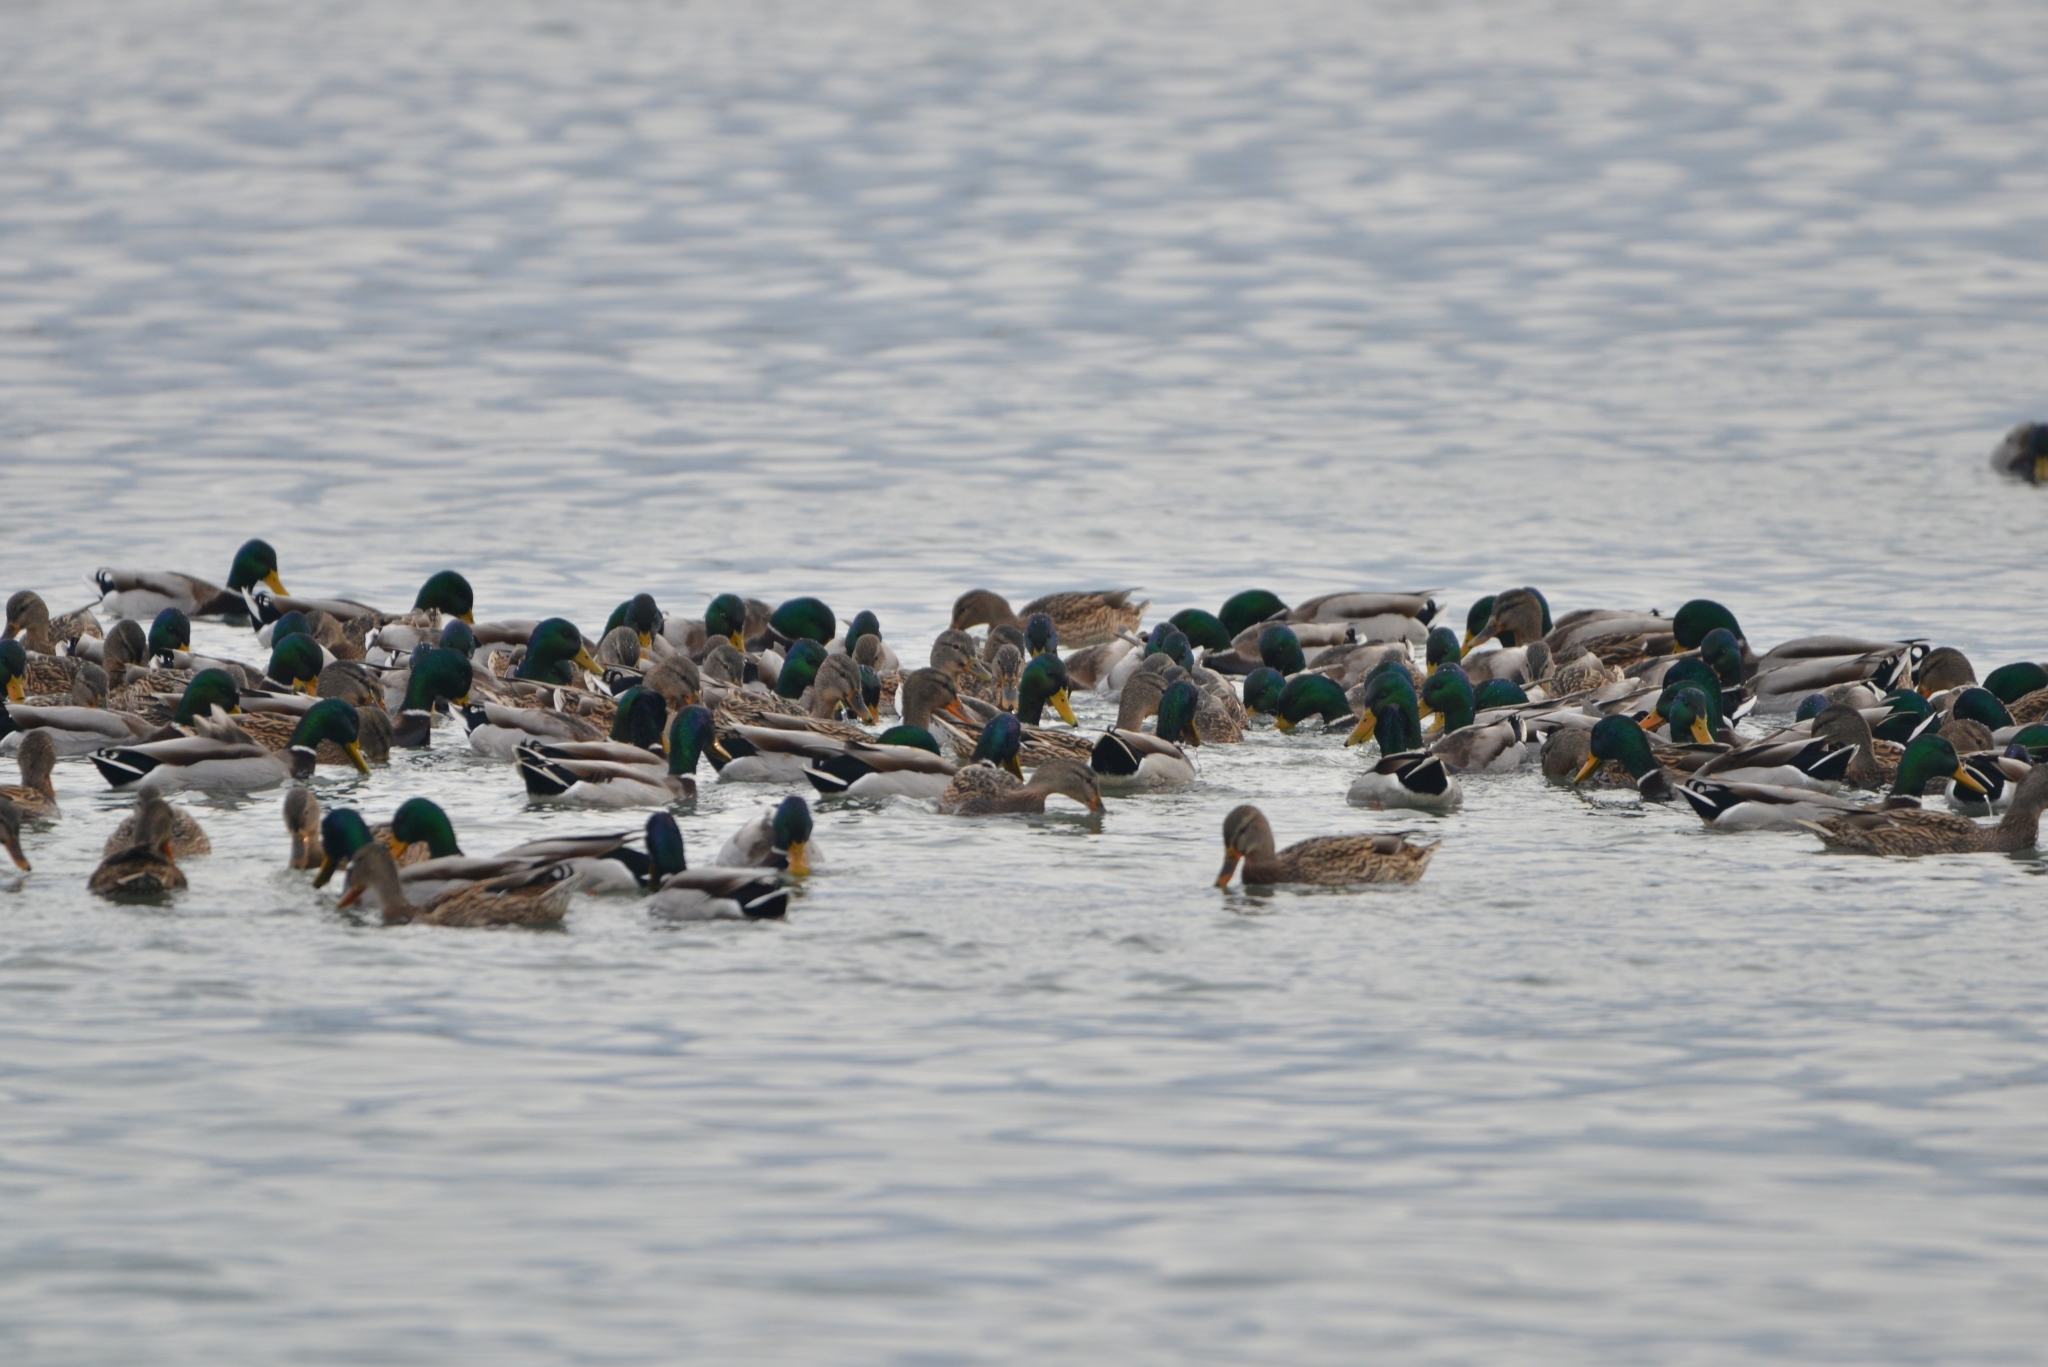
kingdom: Animalia
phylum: Chordata
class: Aves
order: Anseriformes
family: Anatidae
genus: Anas
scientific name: Anas platyrhynchos
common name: Mallard
